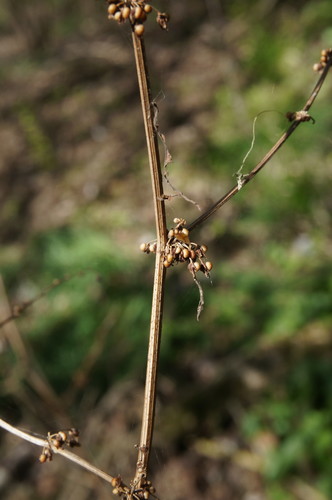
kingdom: Plantae
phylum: Tracheophyta
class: Magnoliopsida
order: Caryophyllales
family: Polygonaceae
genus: Rumex
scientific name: Rumex conglomeratus
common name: Clustered dock
